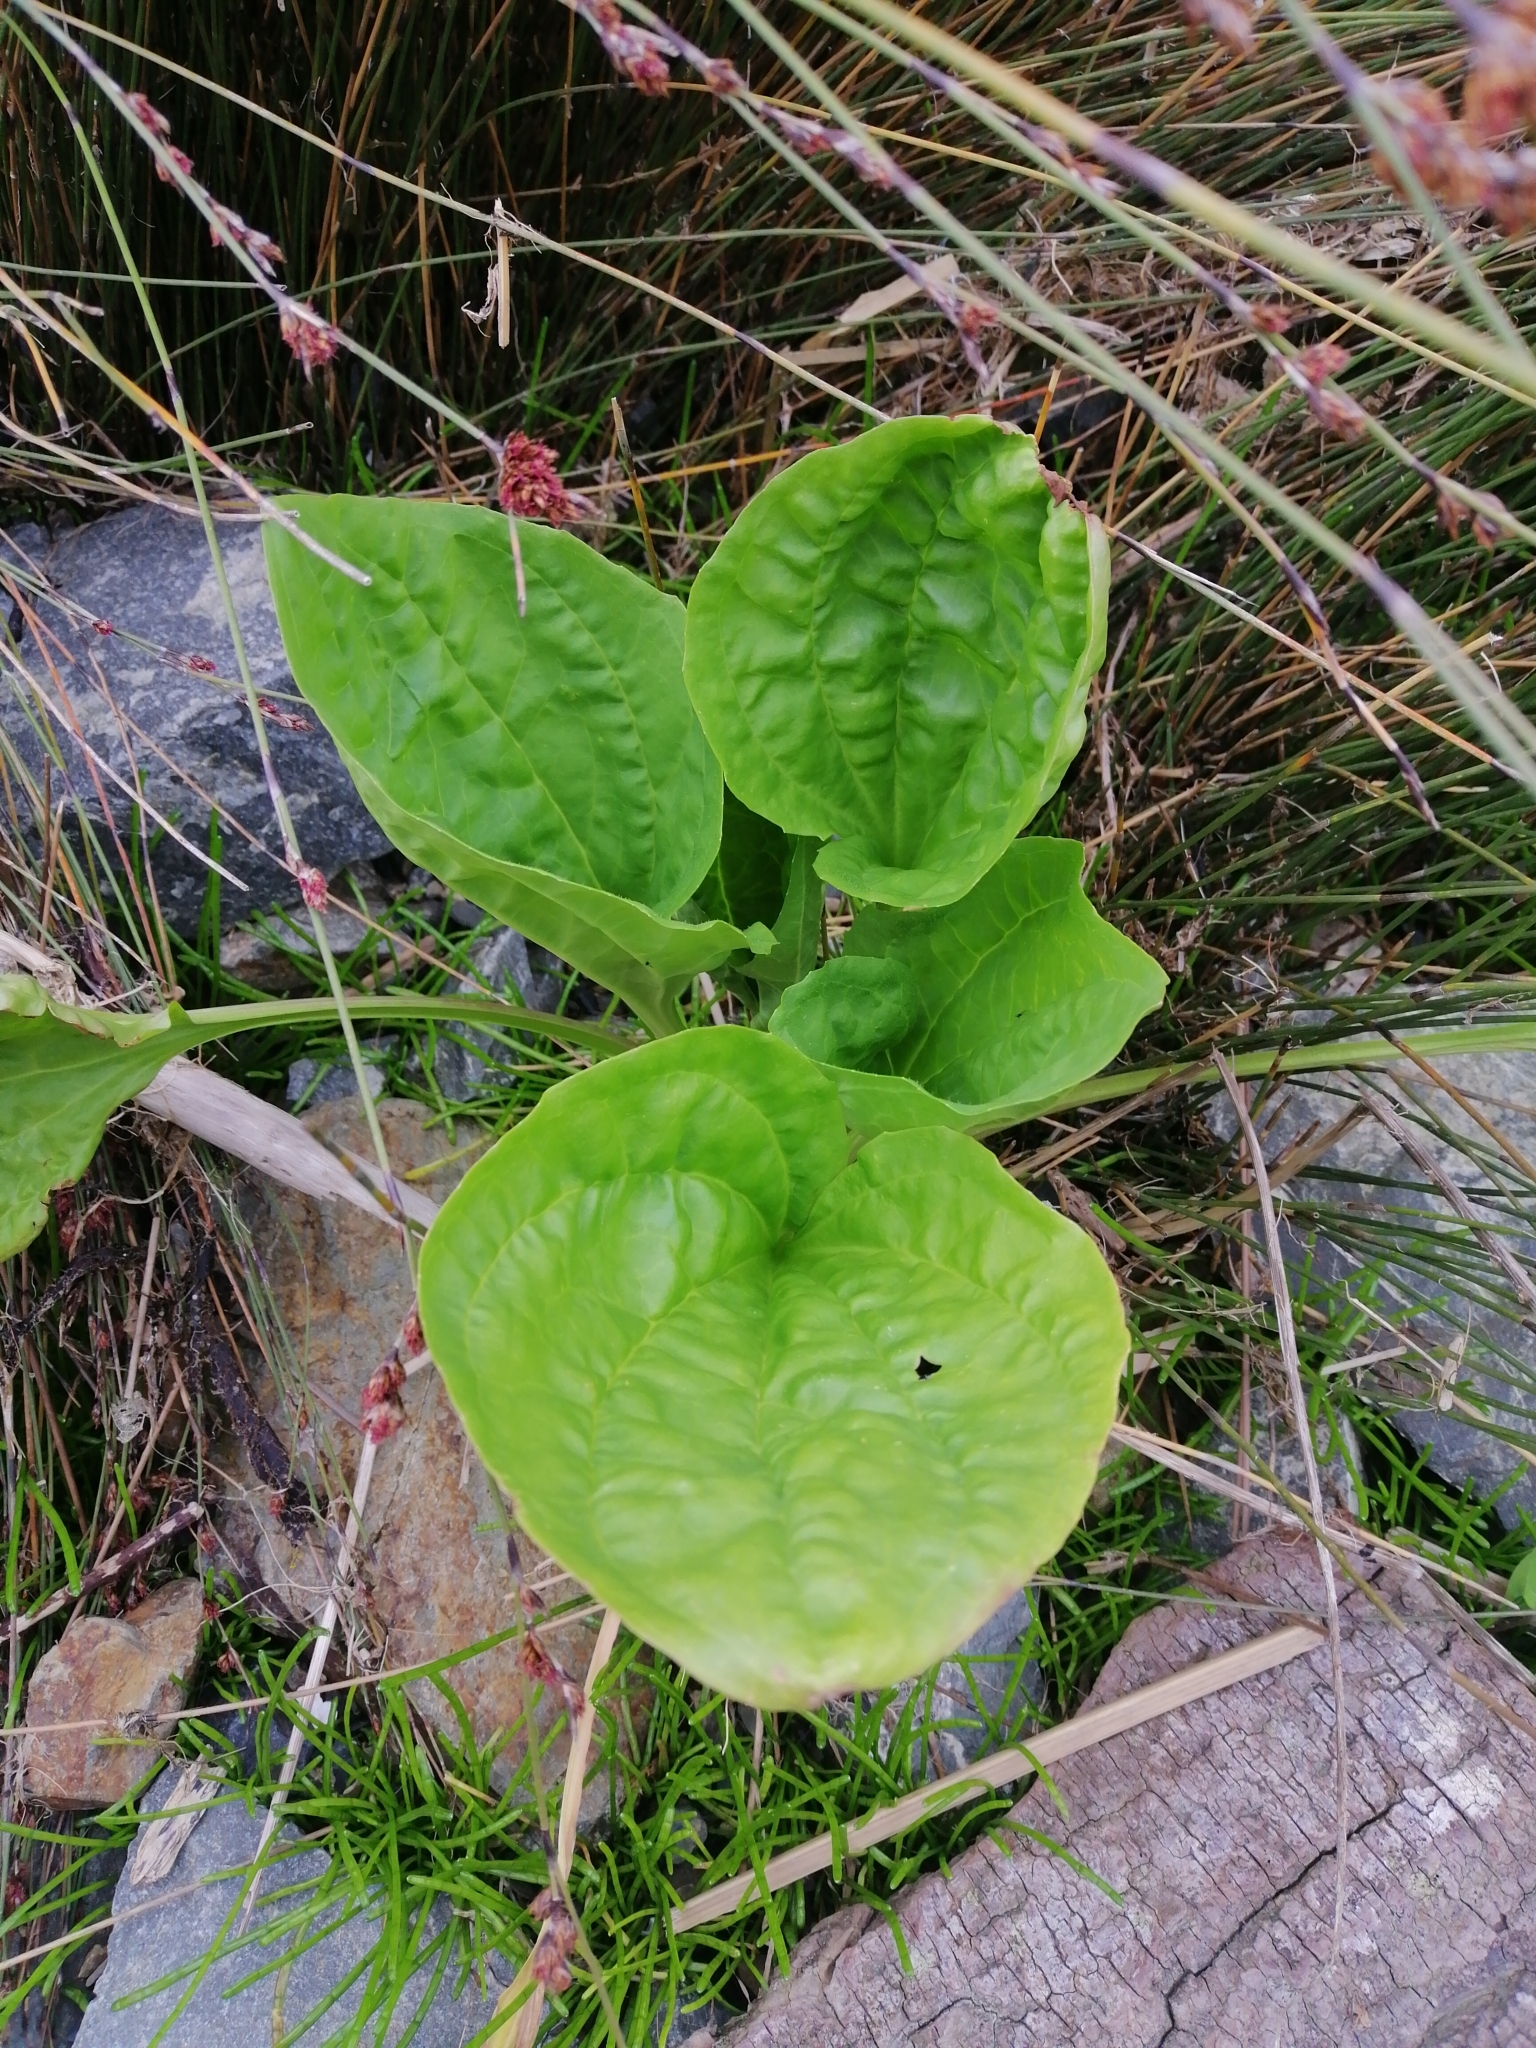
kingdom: Plantae
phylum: Tracheophyta
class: Magnoliopsida
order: Lamiales
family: Plantaginaceae
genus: Plantago
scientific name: Plantago major
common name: Common plantain
